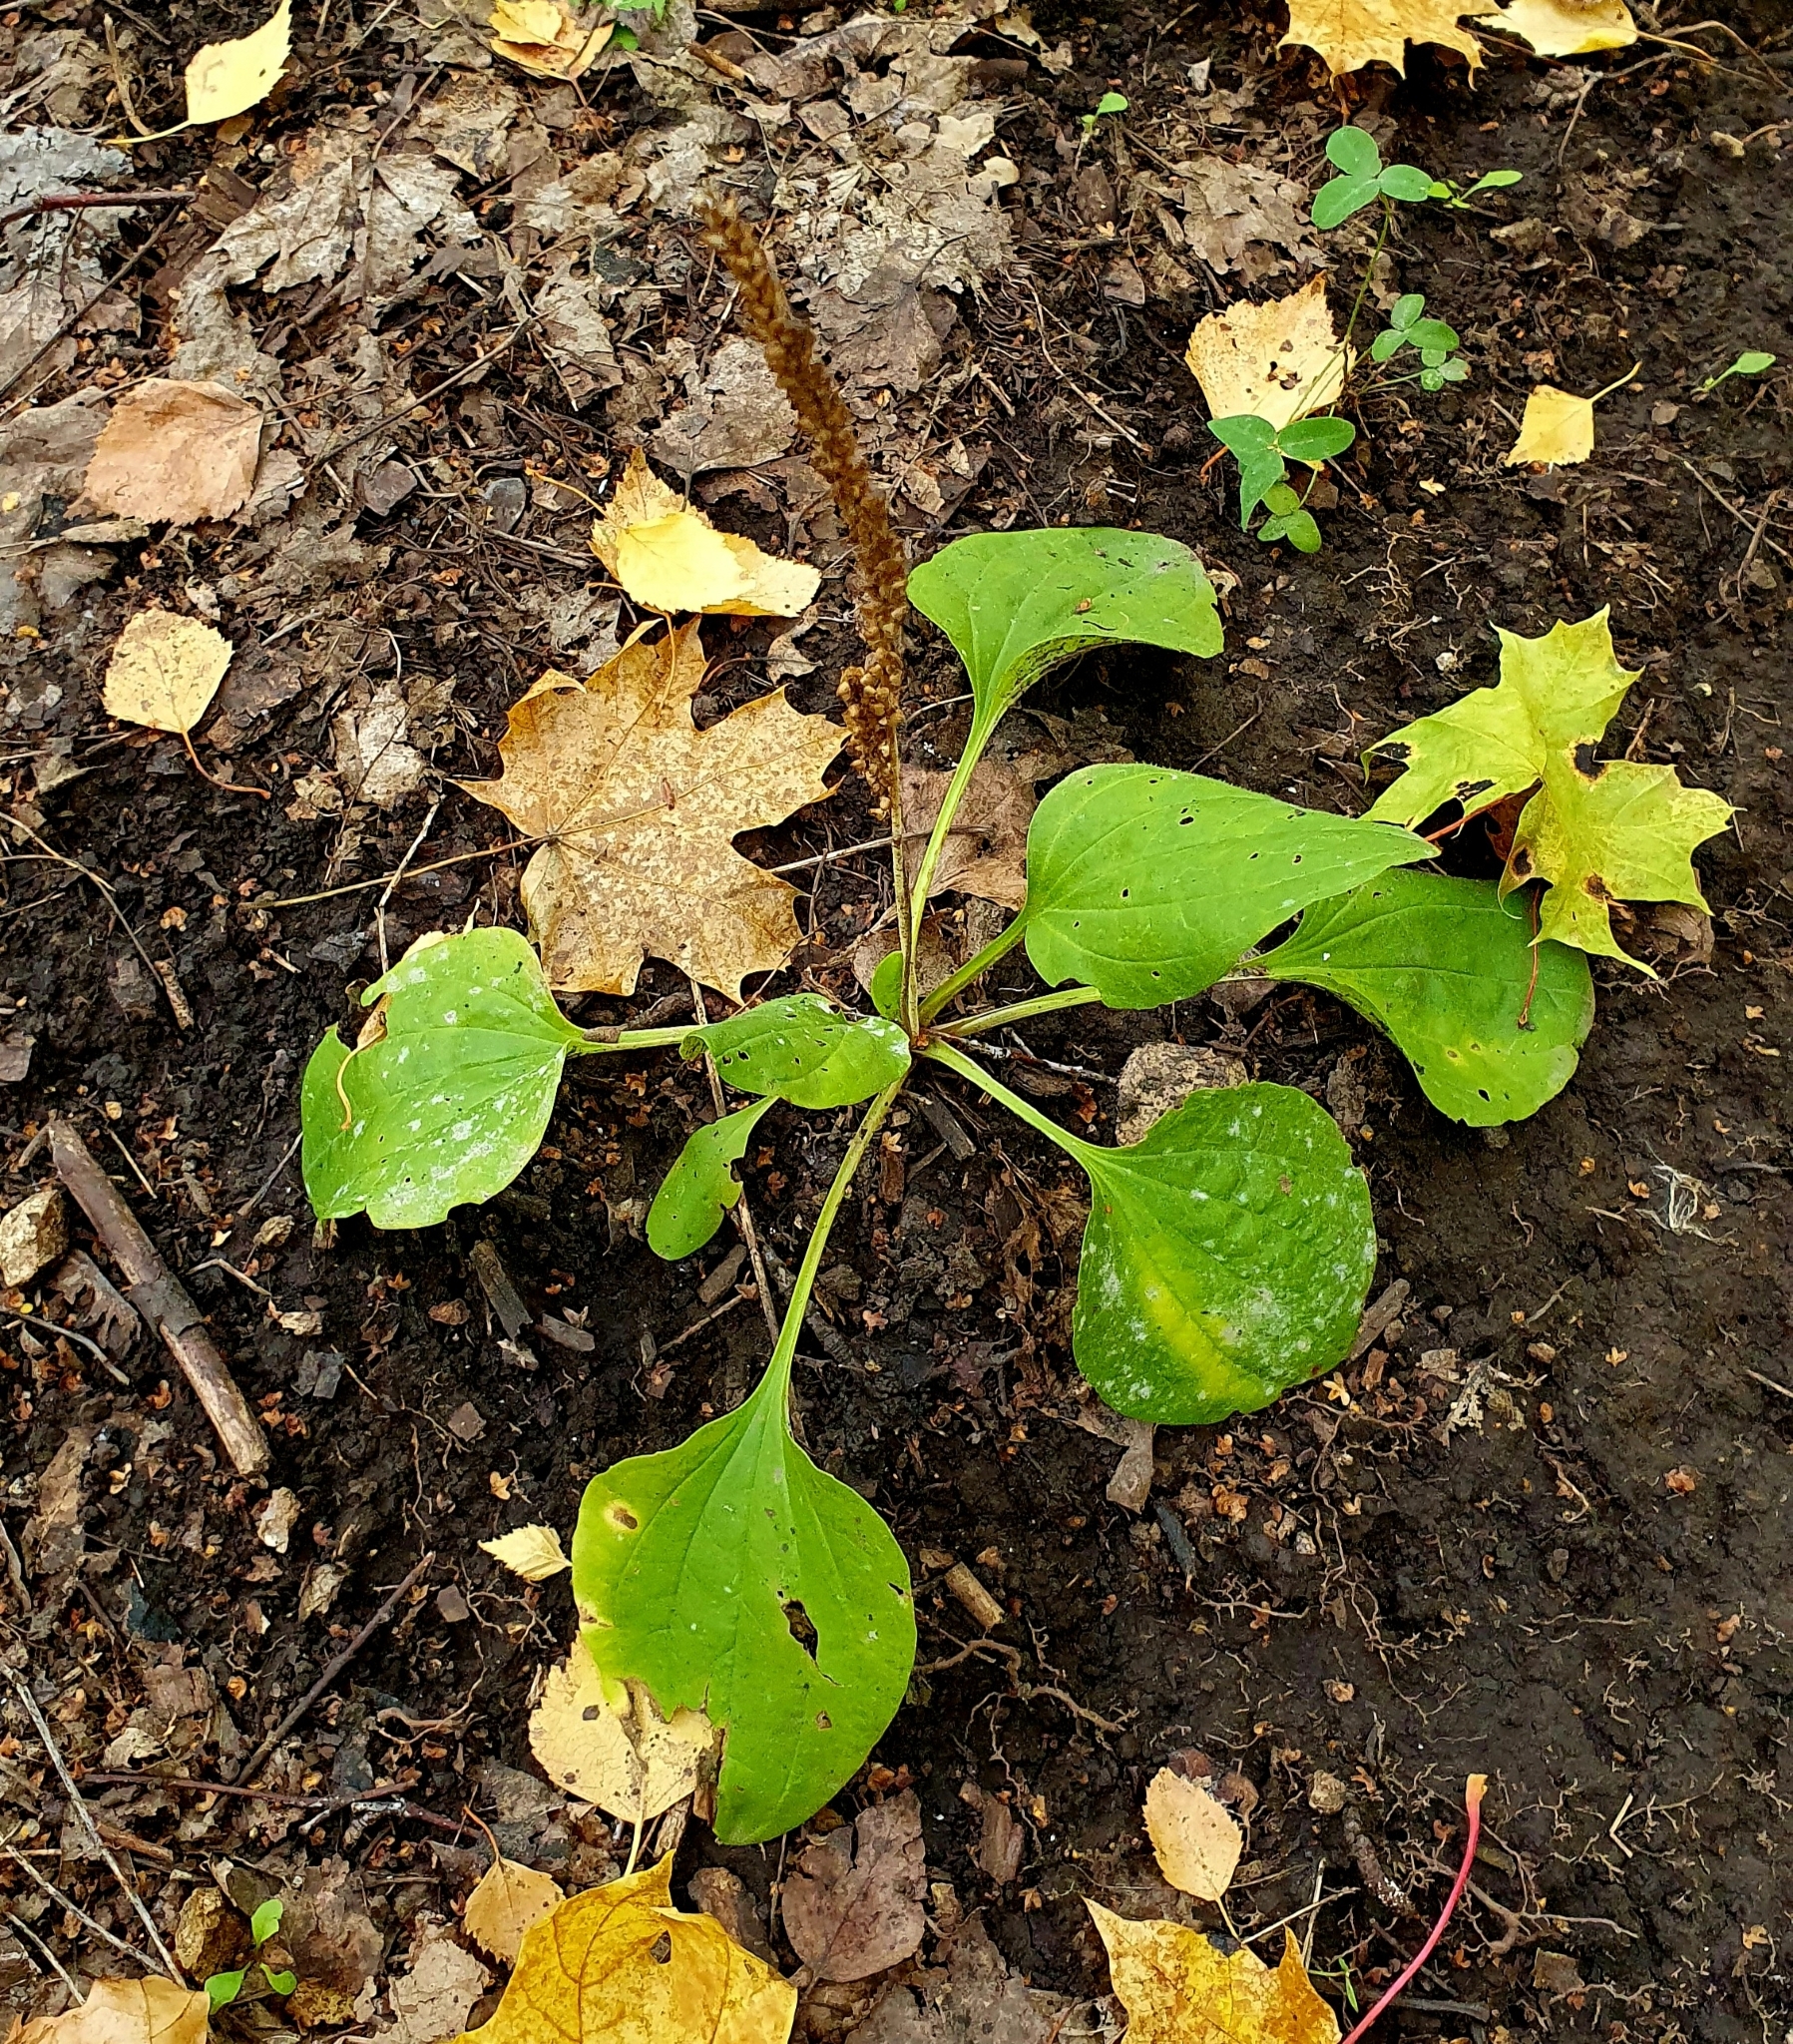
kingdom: Plantae
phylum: Tracheophyta
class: Magnoliopsida
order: Lamiales
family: Plantaginaceae
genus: Plantago
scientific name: Plantago major
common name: Common plantain
